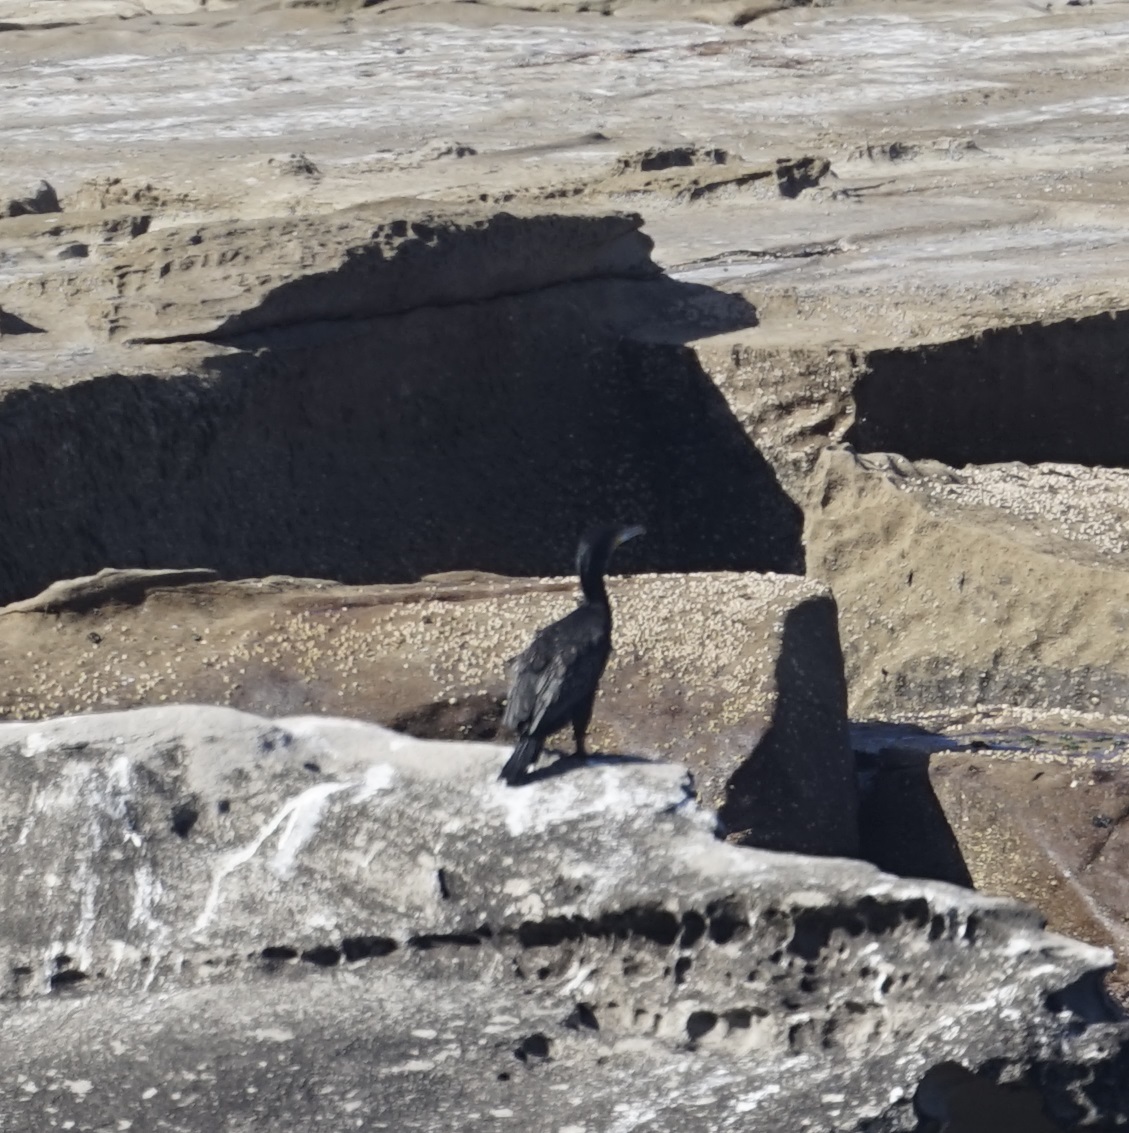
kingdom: Animalia
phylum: Chordata
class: Aves
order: Suliformes
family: Phalacrocoracidae
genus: Phalacrocorax
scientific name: Phalacrocorax carbo
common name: Great cormorant
